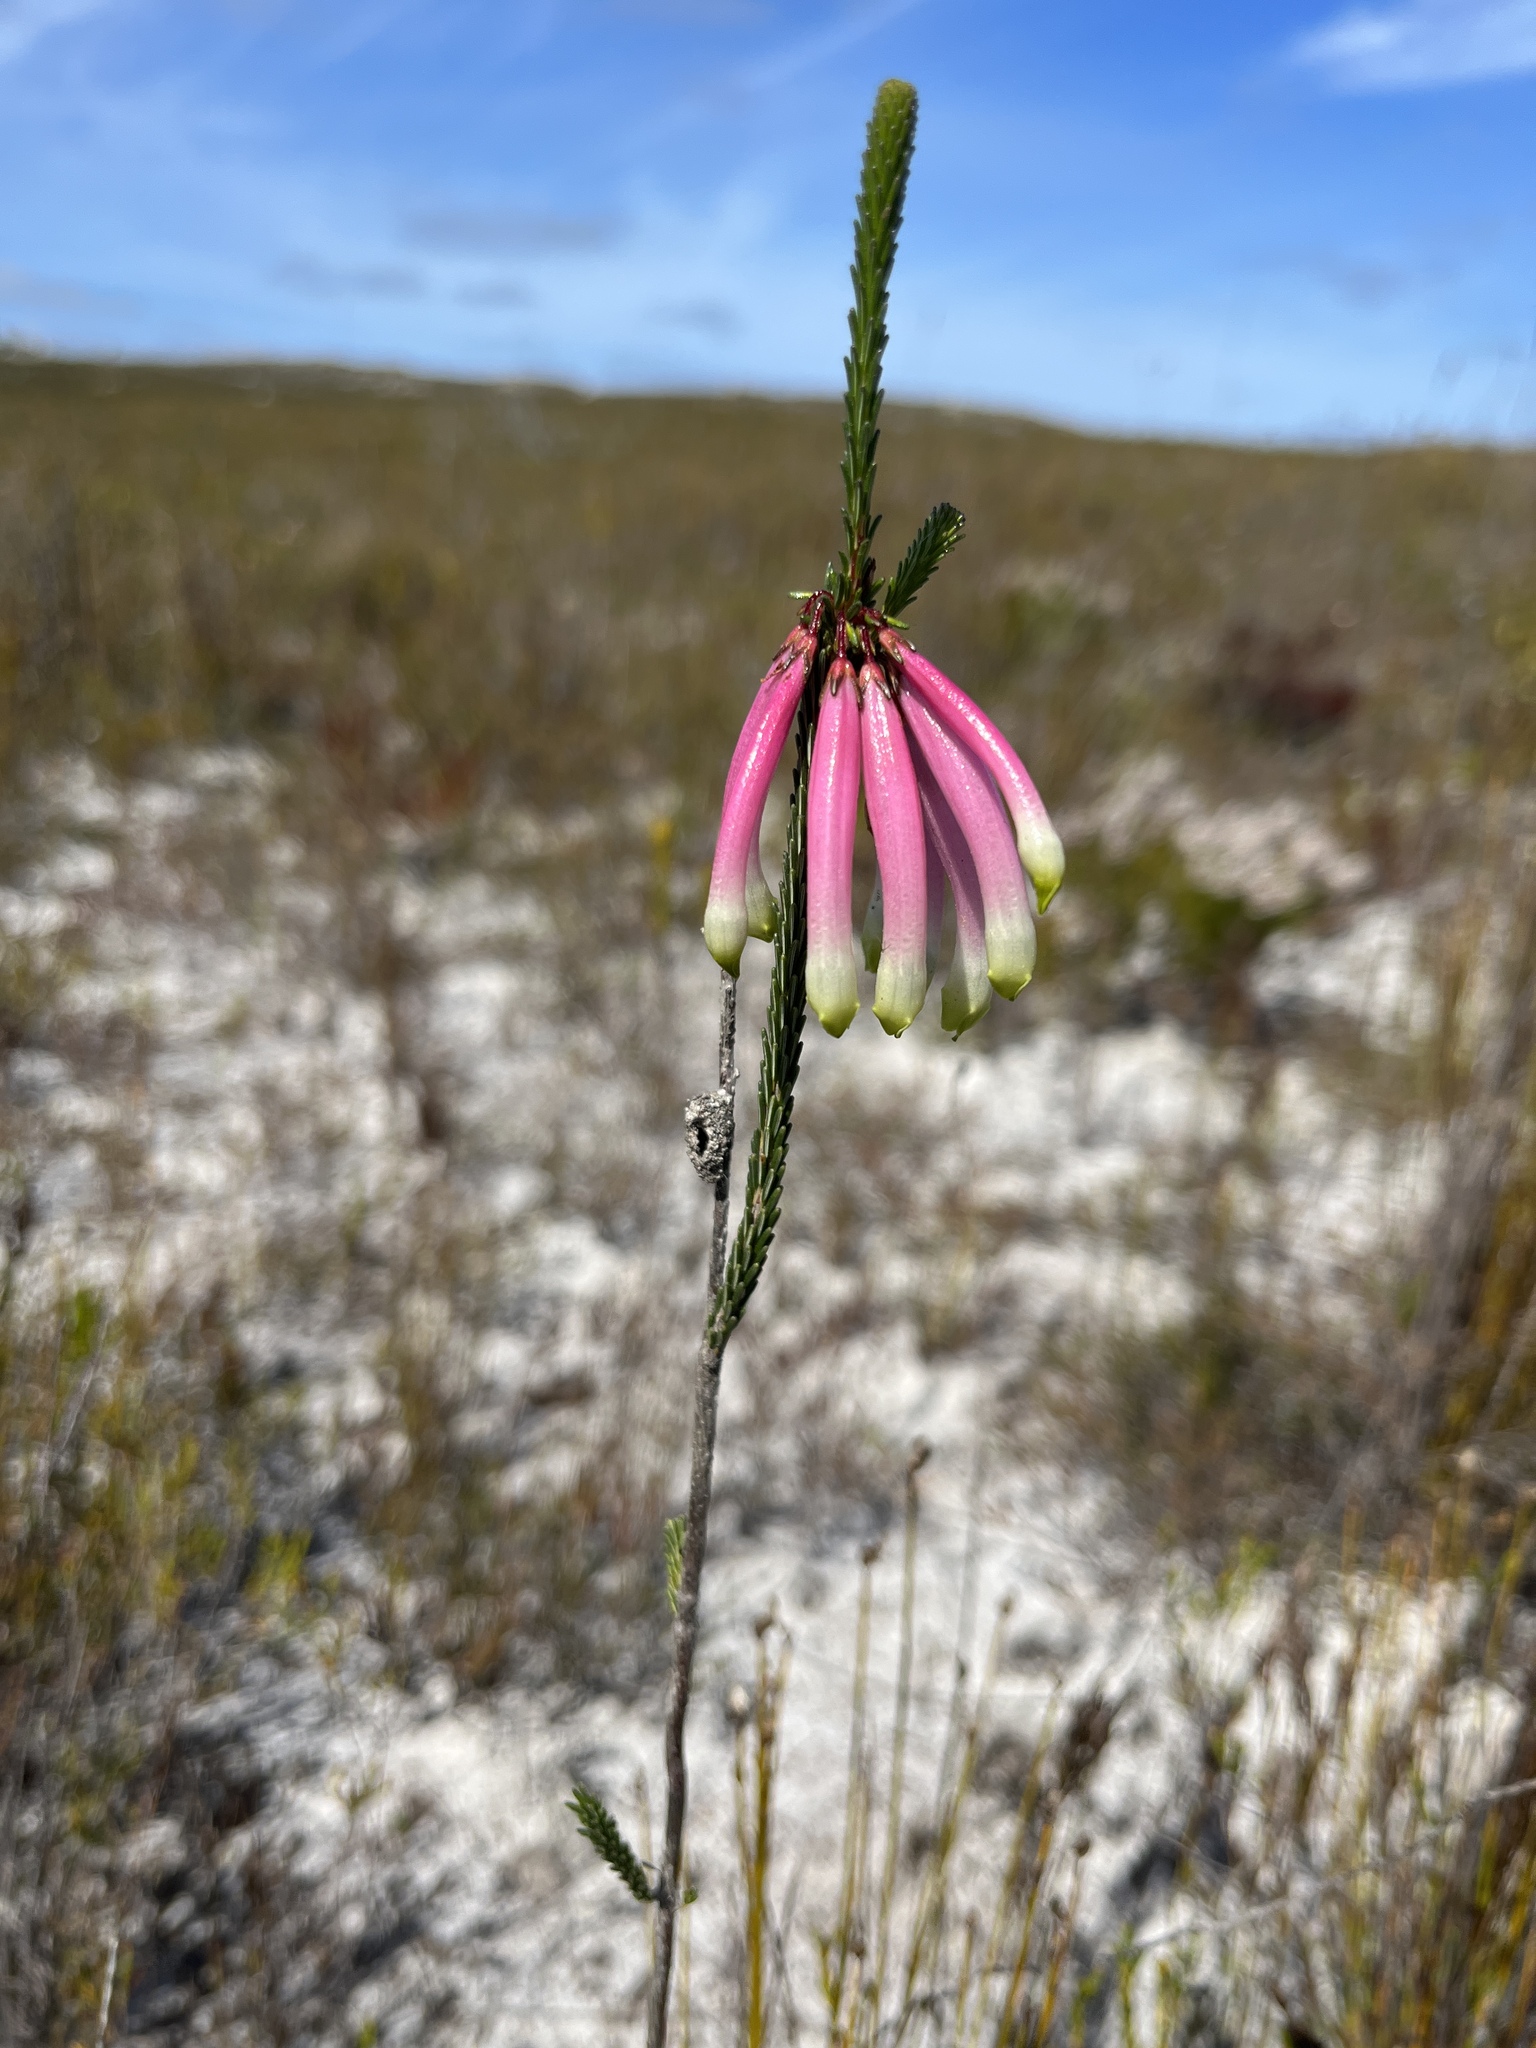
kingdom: Plantae
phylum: Tracheophyta
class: Magnoliopsida
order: Ericales
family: Ericaceae
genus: Erica
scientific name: Erica fascicularis
